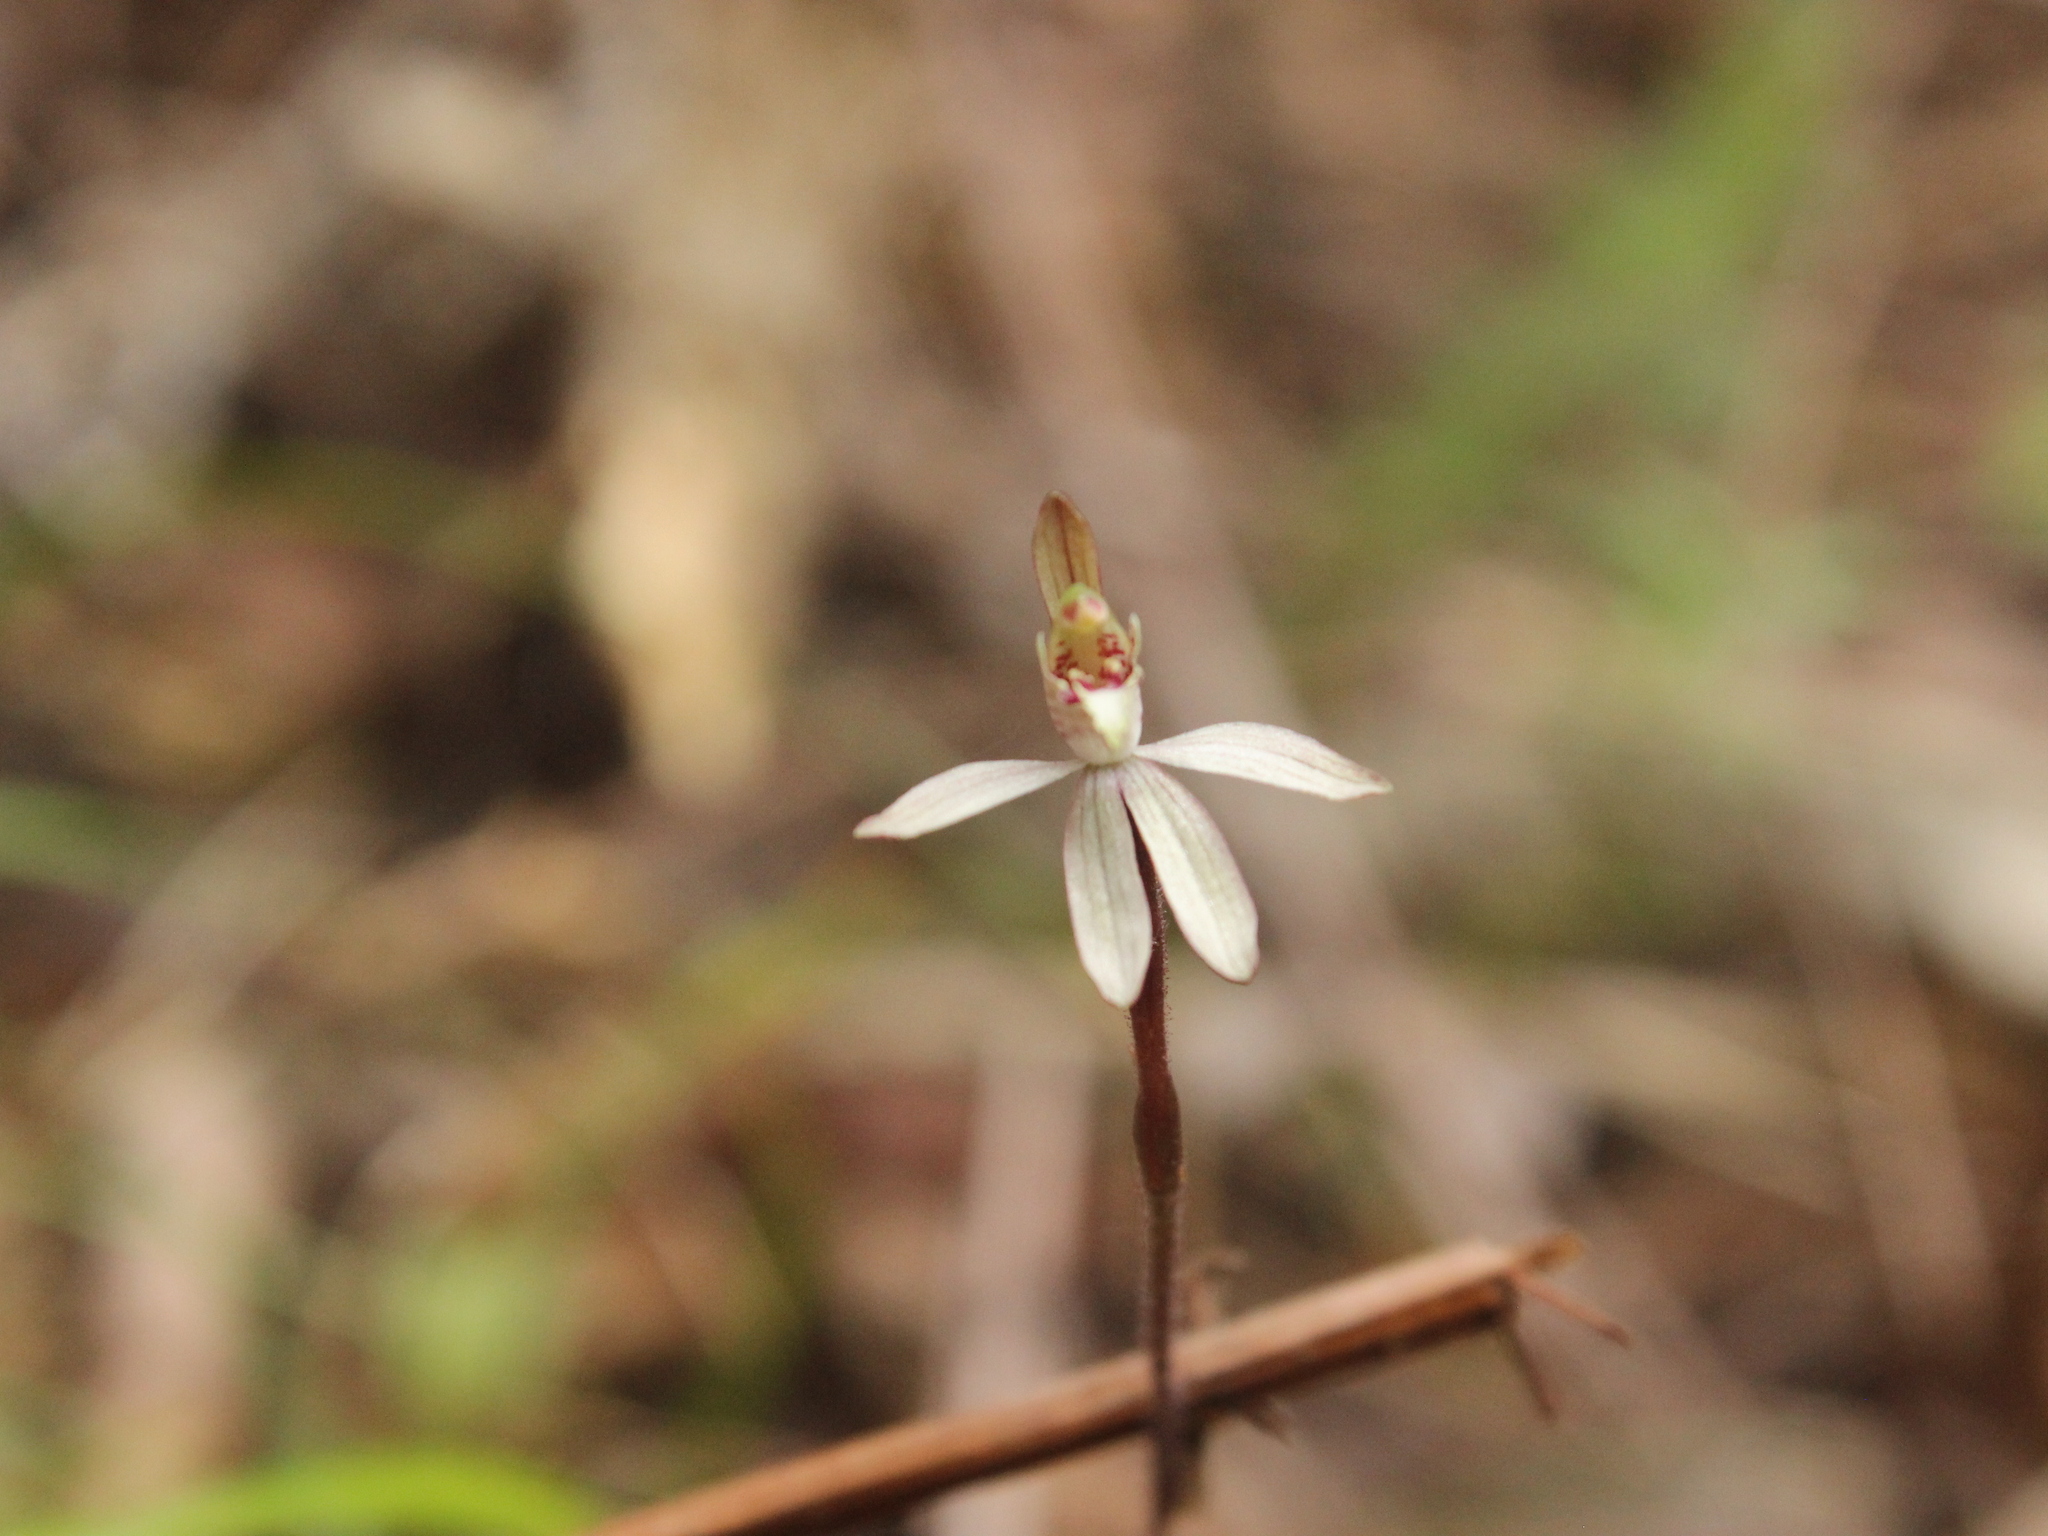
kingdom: Plantae
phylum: Tracheophyta
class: Liliopsida
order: Asparagales
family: Orchidaceae
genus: Caladenia
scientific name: Caladenia chlorostyla
